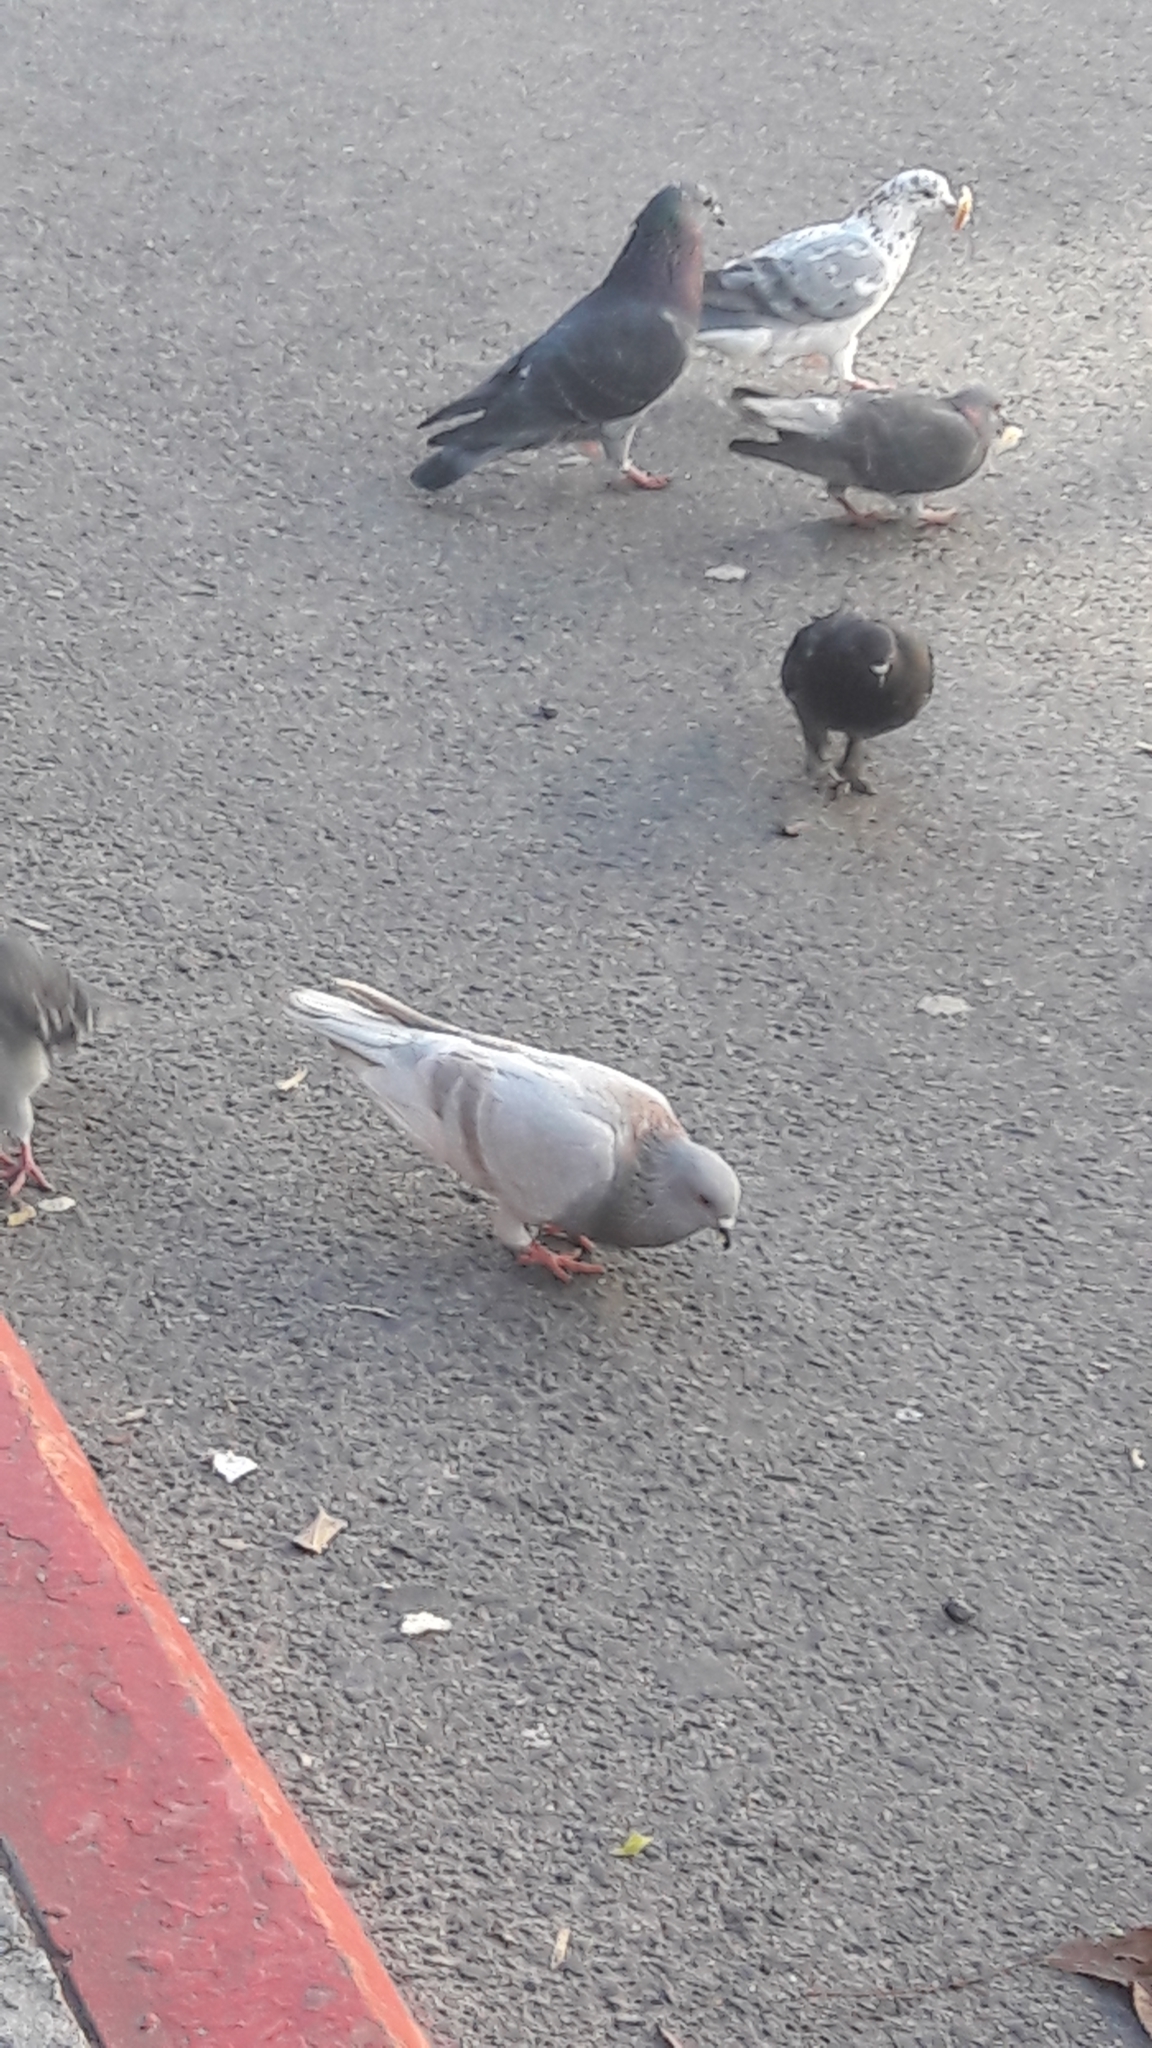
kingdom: Animalia
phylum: Chordata
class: Aves
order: Columbiformes
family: Columbidae
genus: Columba
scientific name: Columba livia
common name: Rock pigeon
